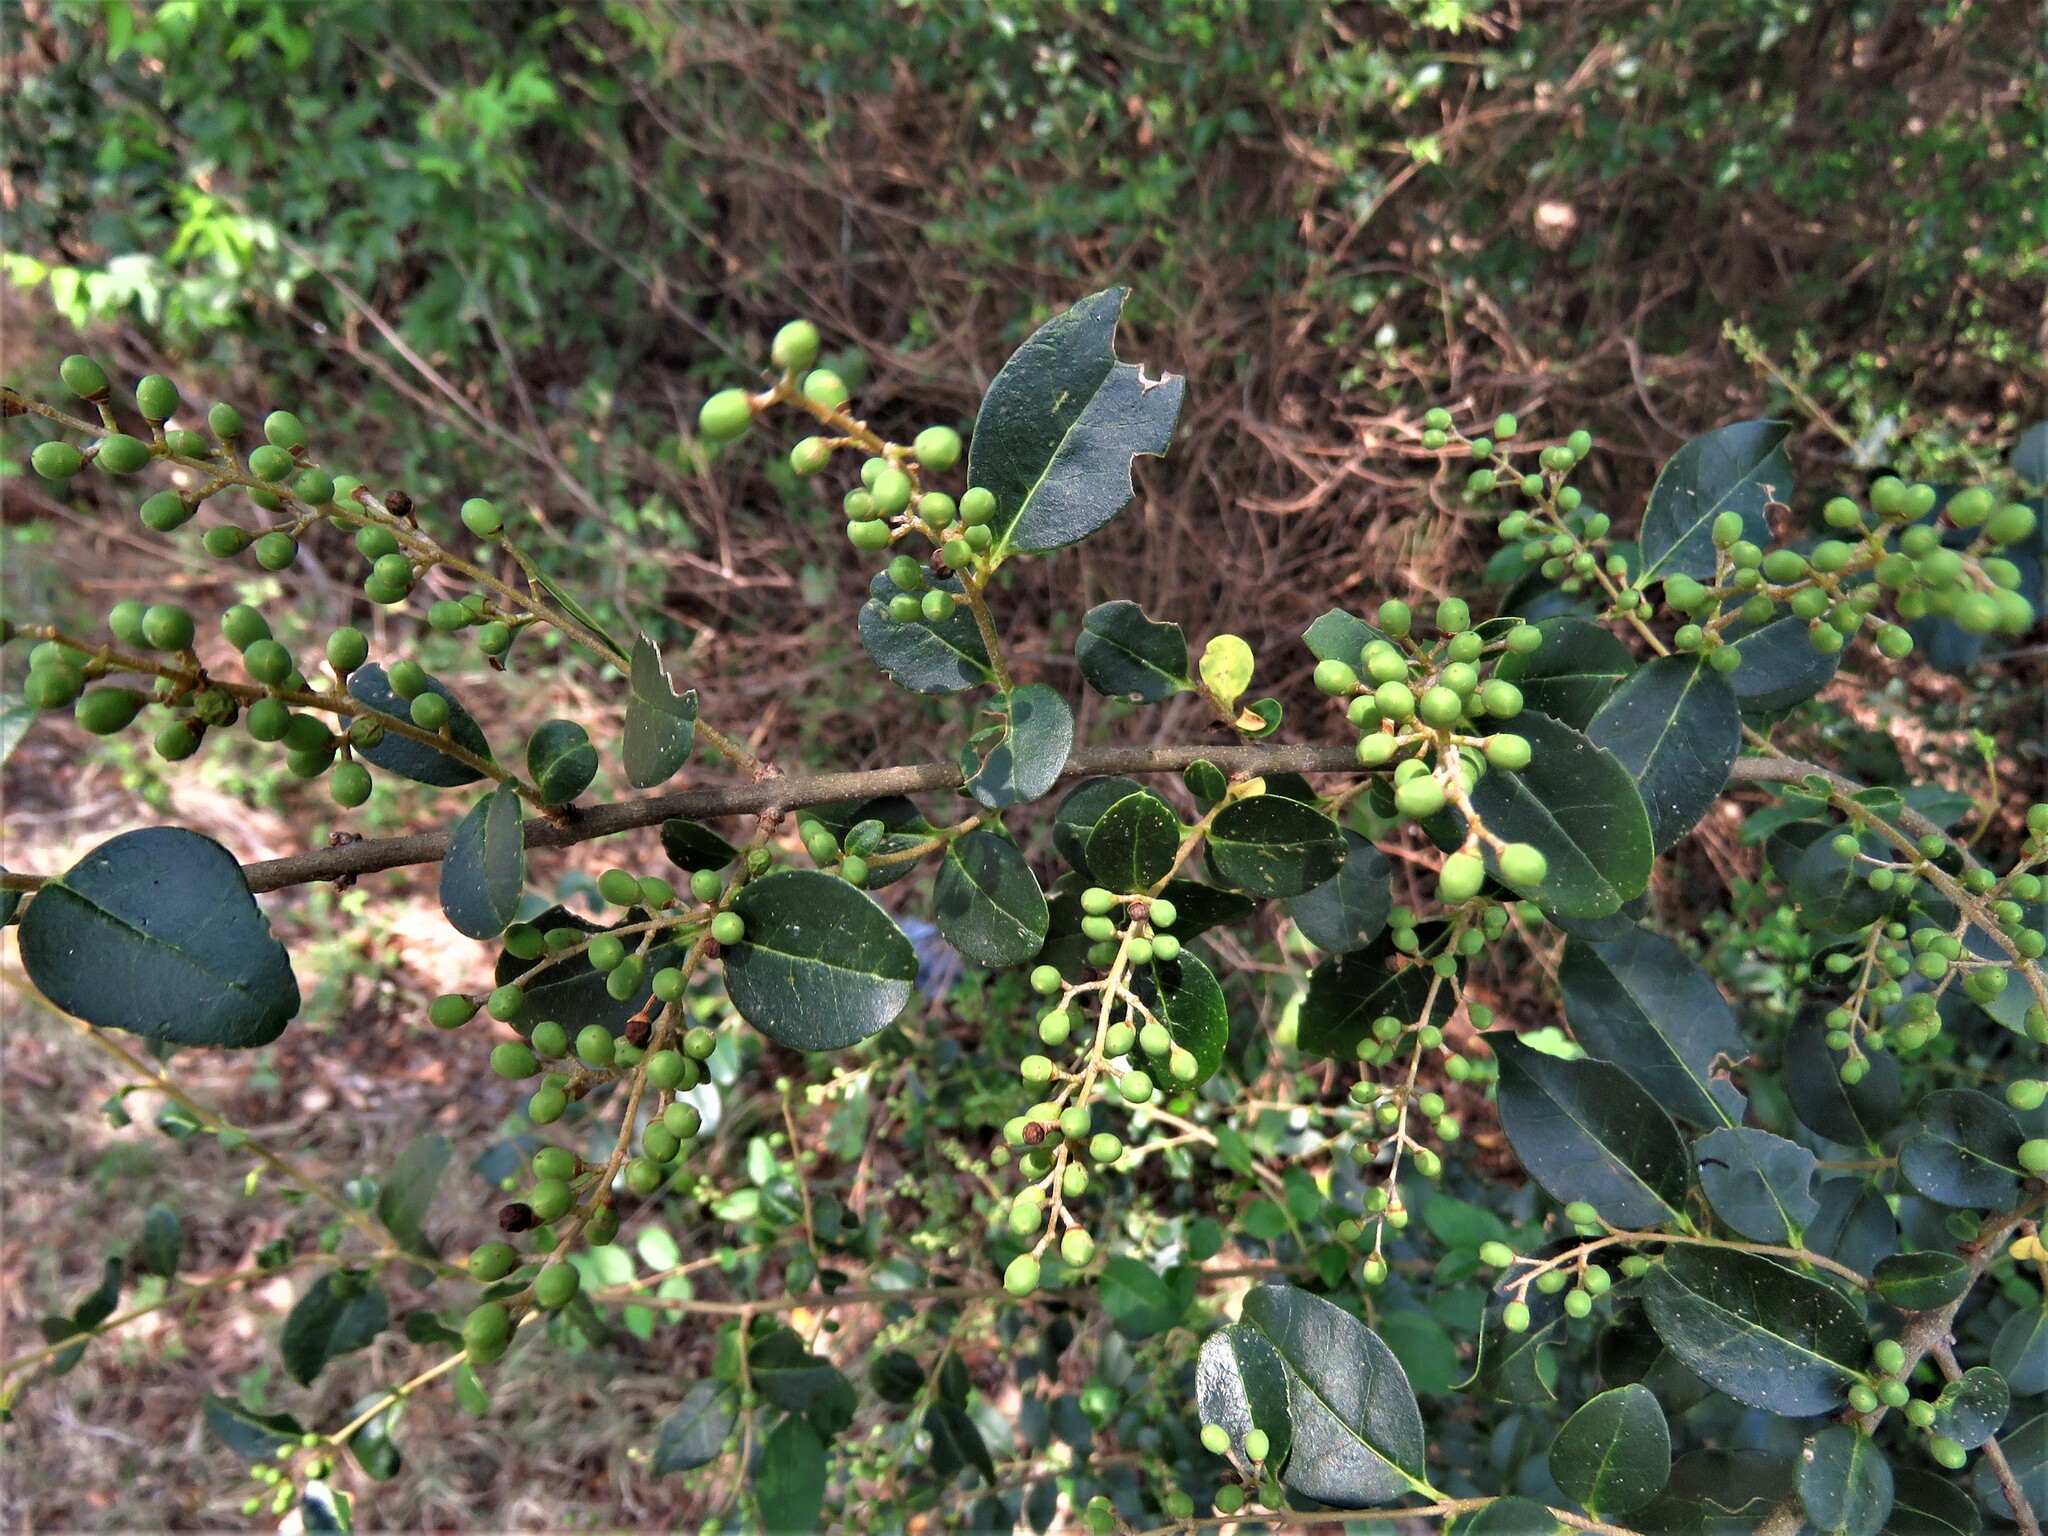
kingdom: Plantae
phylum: Tracheophyta
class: Magnoliopsida
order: Lamiales
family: Oleaceae
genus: Ligustrum
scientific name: Ligustrum sinense
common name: Chinese privet
